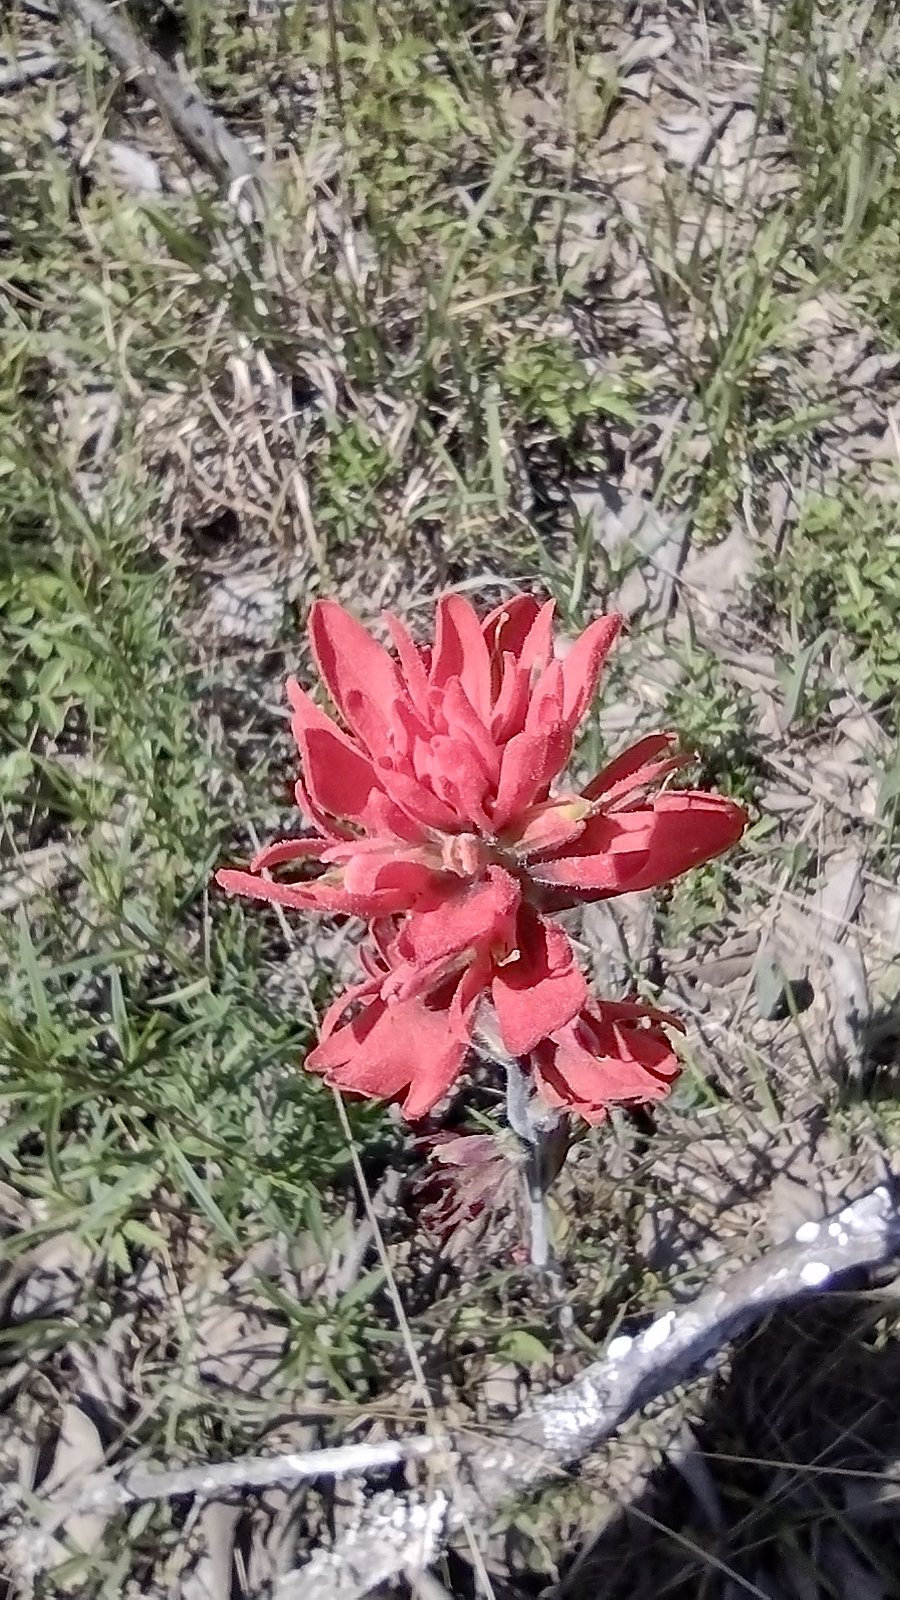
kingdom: Plantae
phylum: Tracheophyta
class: Magnoliopsida
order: Lamiales
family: Orobanchaceae
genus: Castilleja
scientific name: Castilleja coccinea
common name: Scarlet paintbrush
